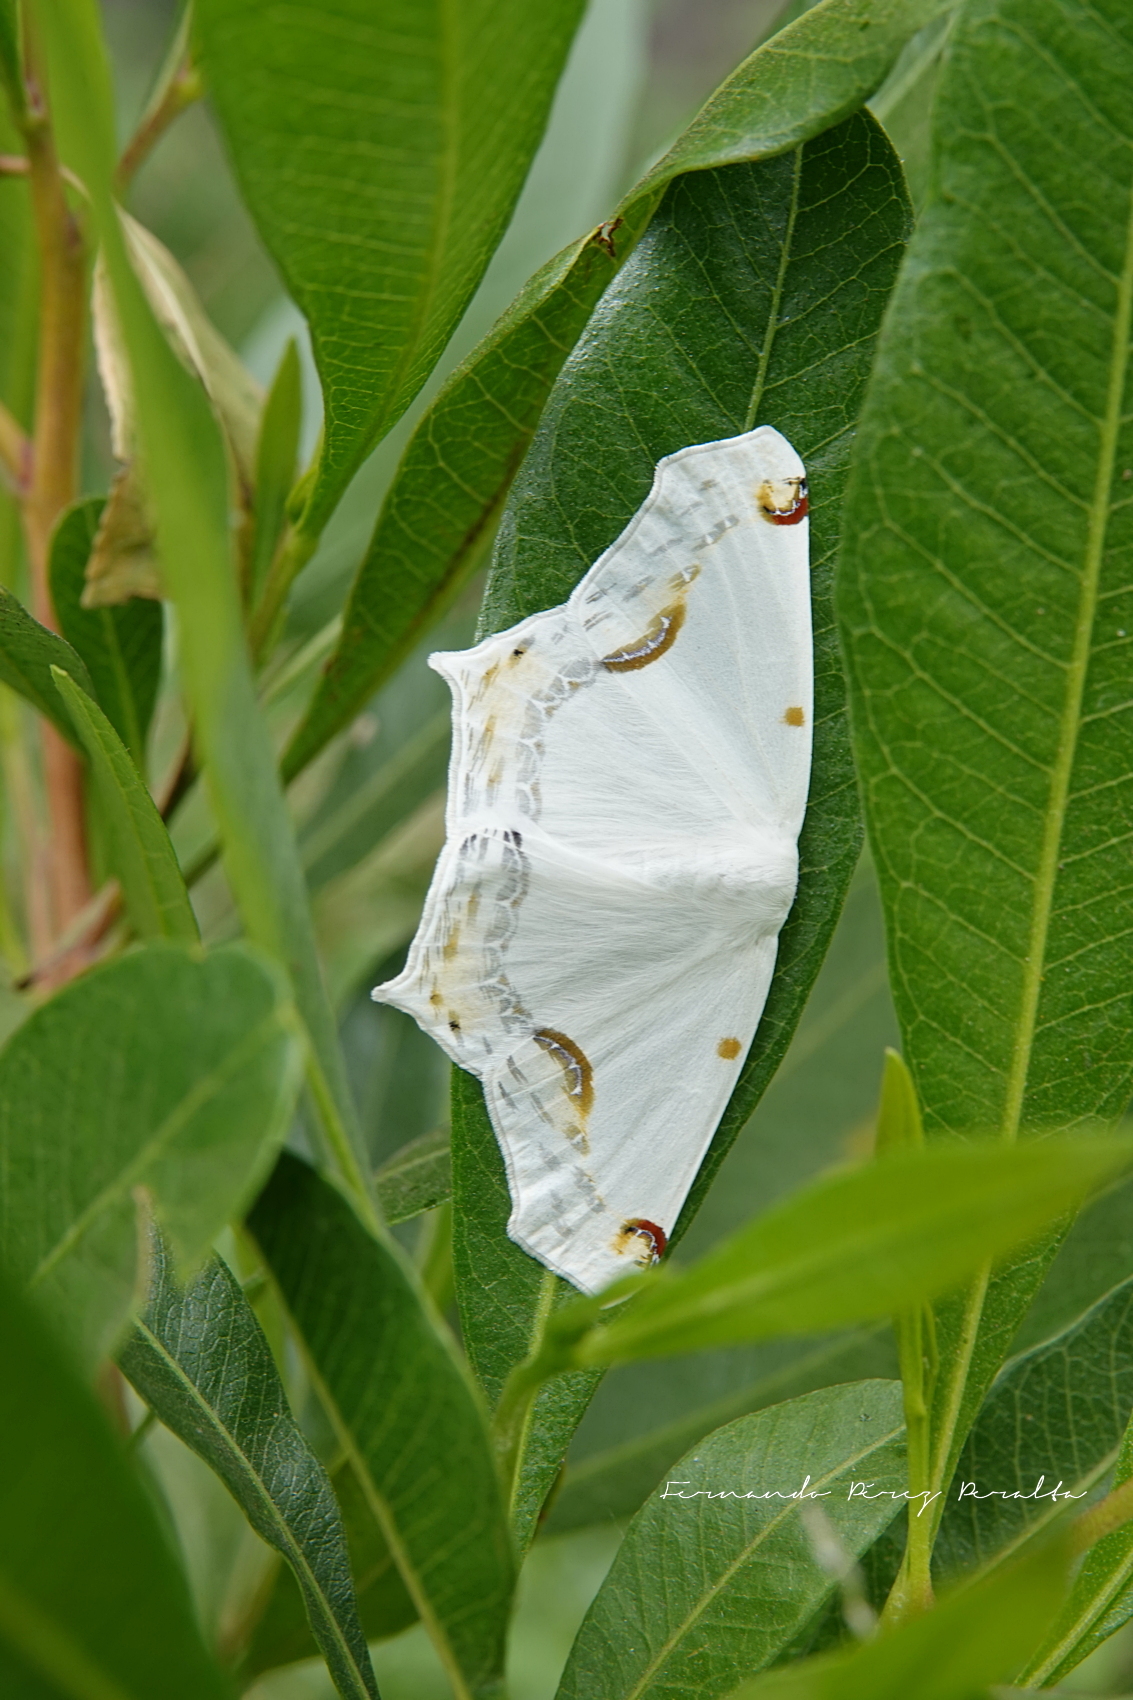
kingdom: Animalia
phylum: Arthropoda
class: Insecta
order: Lepidoptera
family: Geometridae
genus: Sericoptera
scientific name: Sericoptera mahometaria
